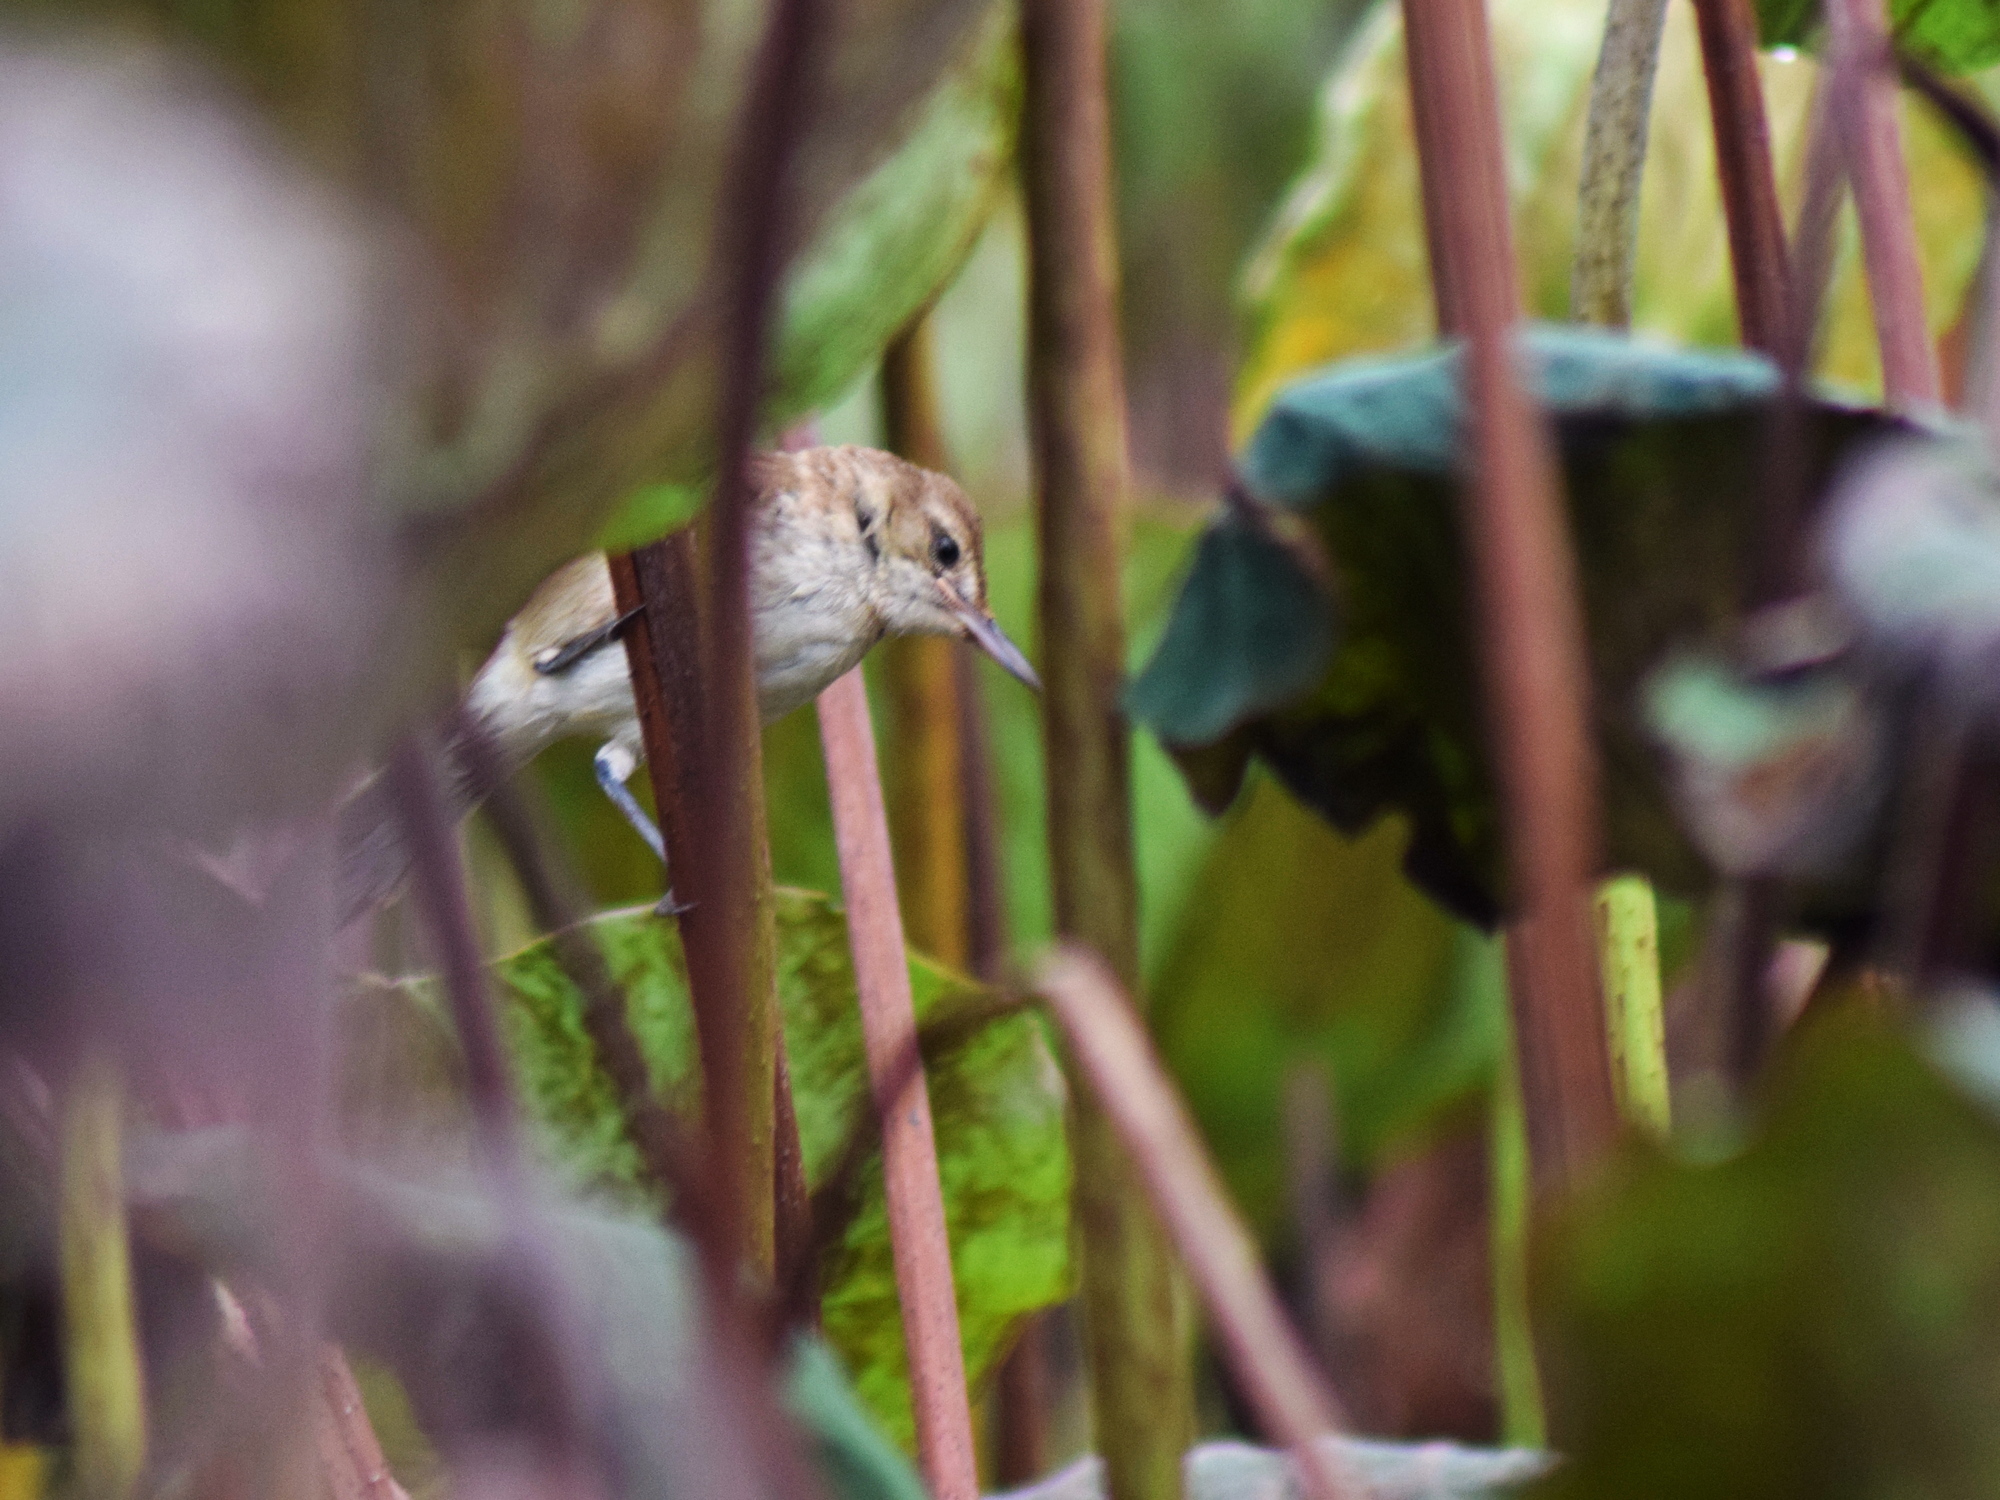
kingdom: Animalia
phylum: Chordata
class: Aves
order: Passeriformes
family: Acrocephalidae
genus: Acrocephalus
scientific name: Acrocephalus stentoreus
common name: Clamorous reed warbler
